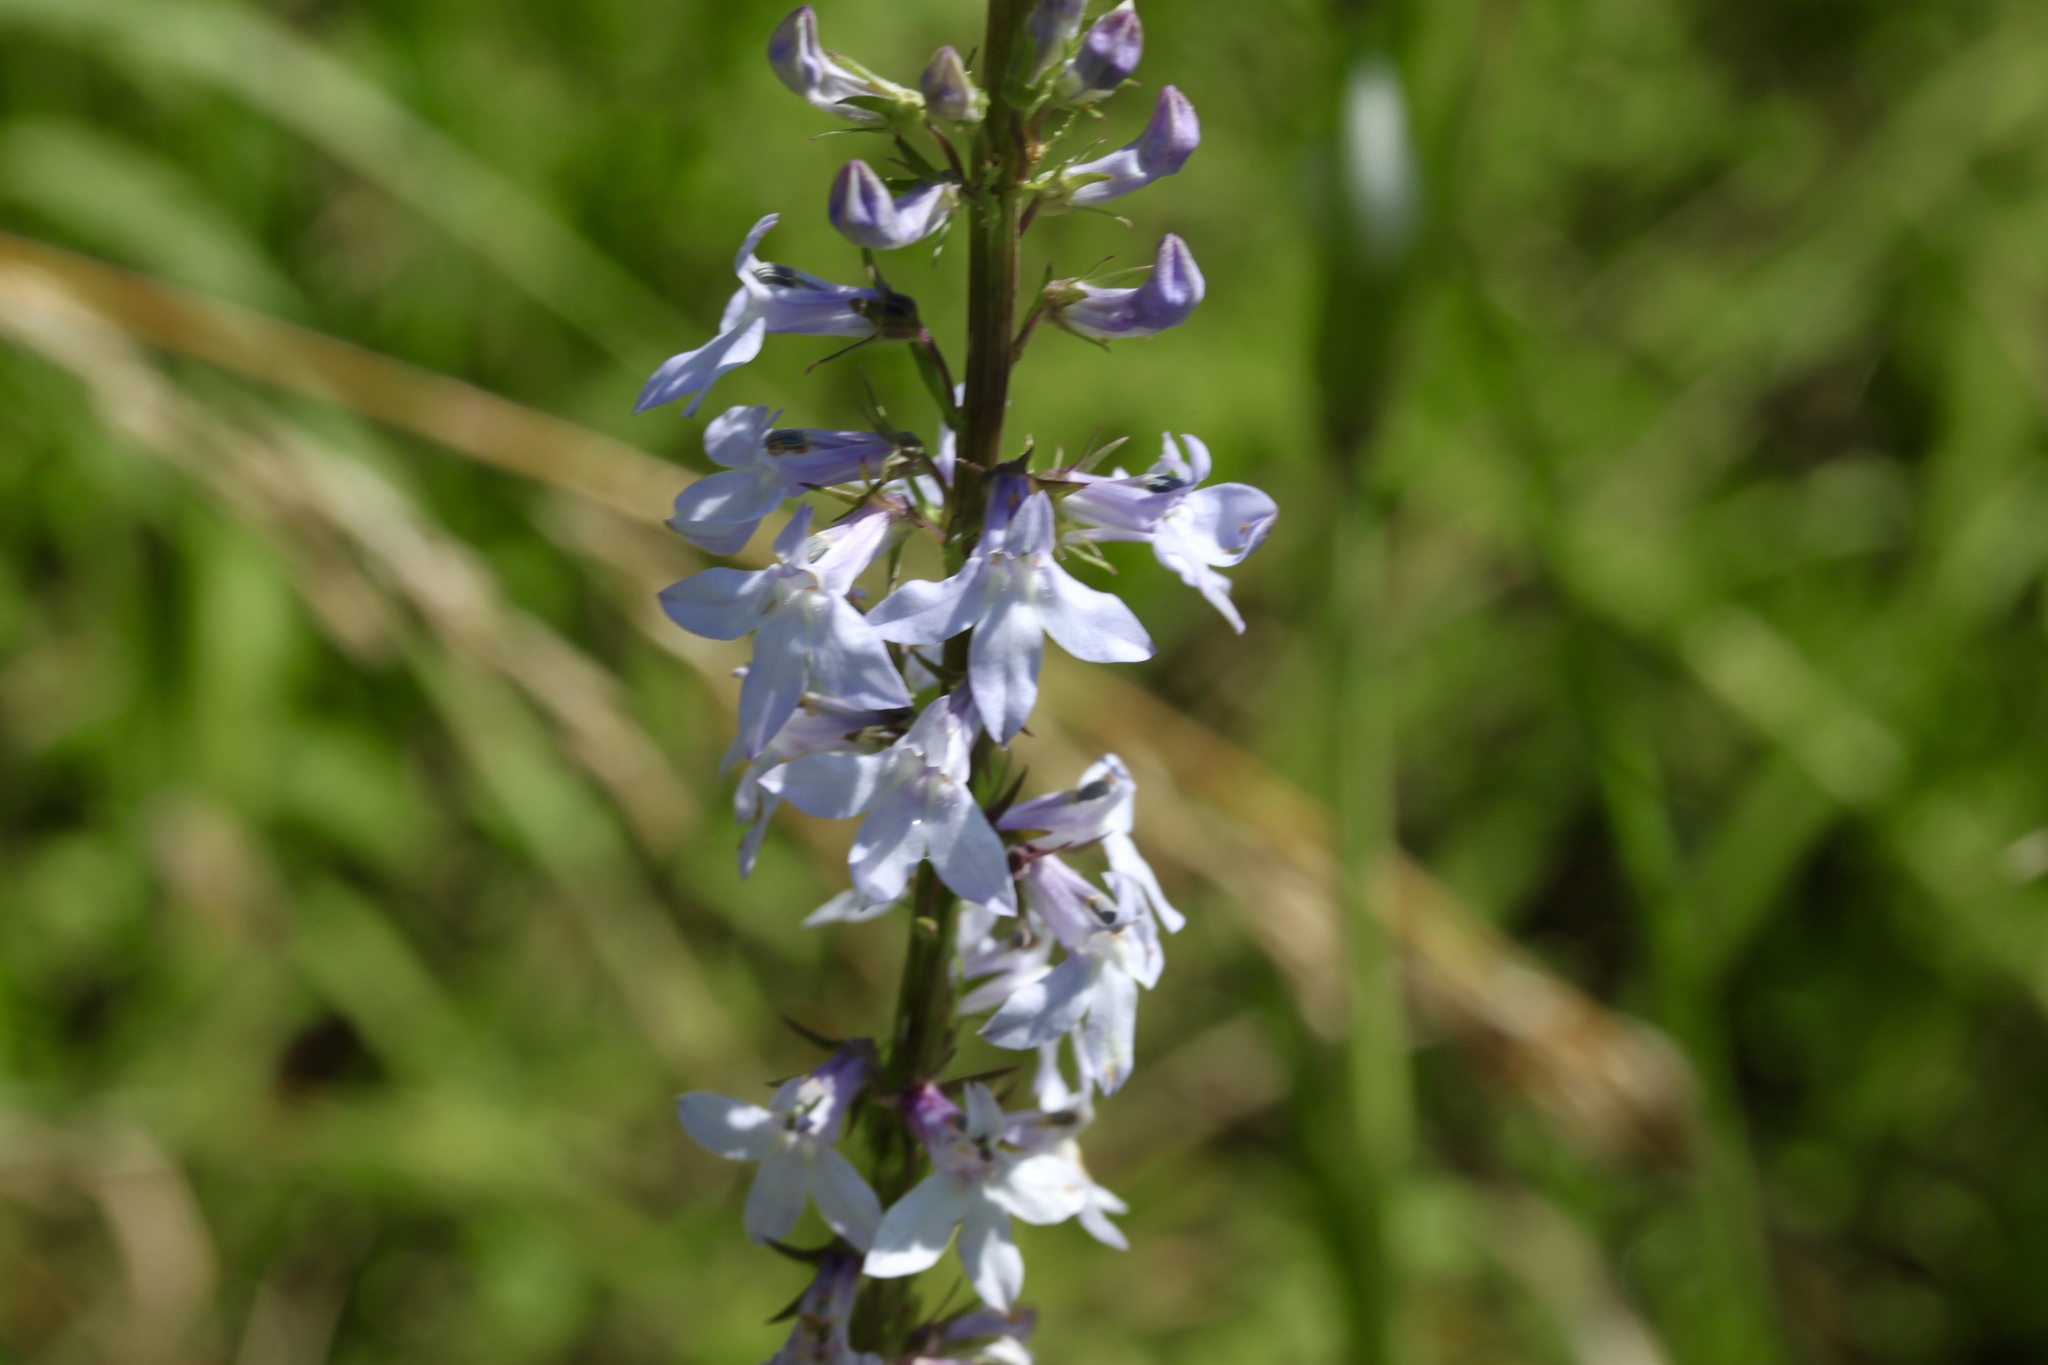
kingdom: Plantae
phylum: Tracheophyta
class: Magnoliopsida
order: Asterales
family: Campanulaceae
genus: Lobelia
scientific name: Lobelia spicata
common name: Pale-spike lobelia
